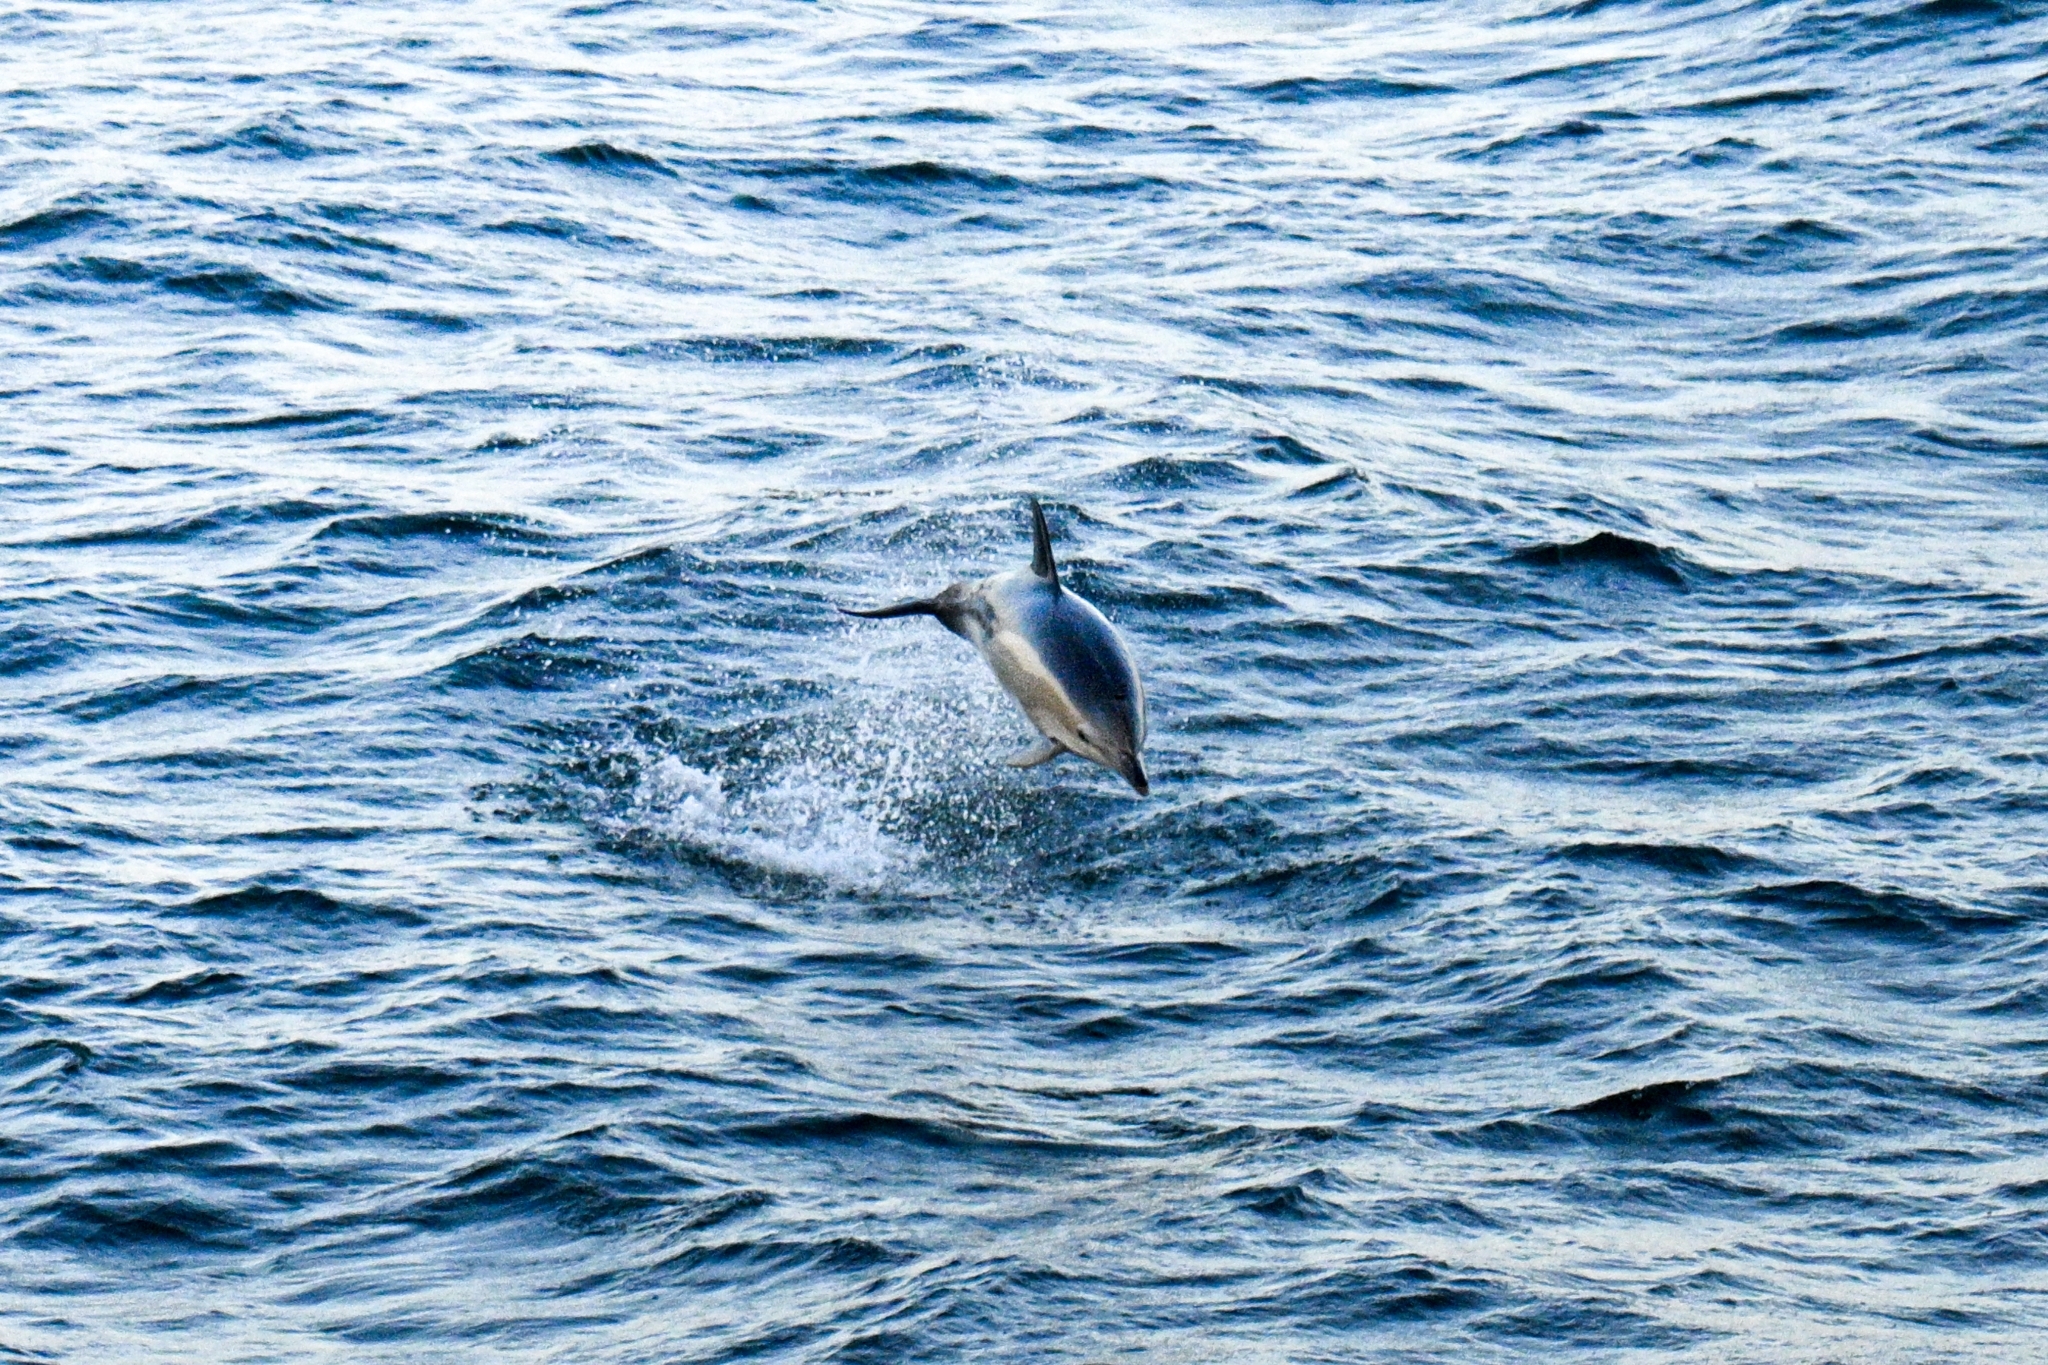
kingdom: Animalia
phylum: Chordata
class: Mammalia
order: Cetacea
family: Delphinidae
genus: Delphinus
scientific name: Delphinus delphis
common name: Common dolphin
